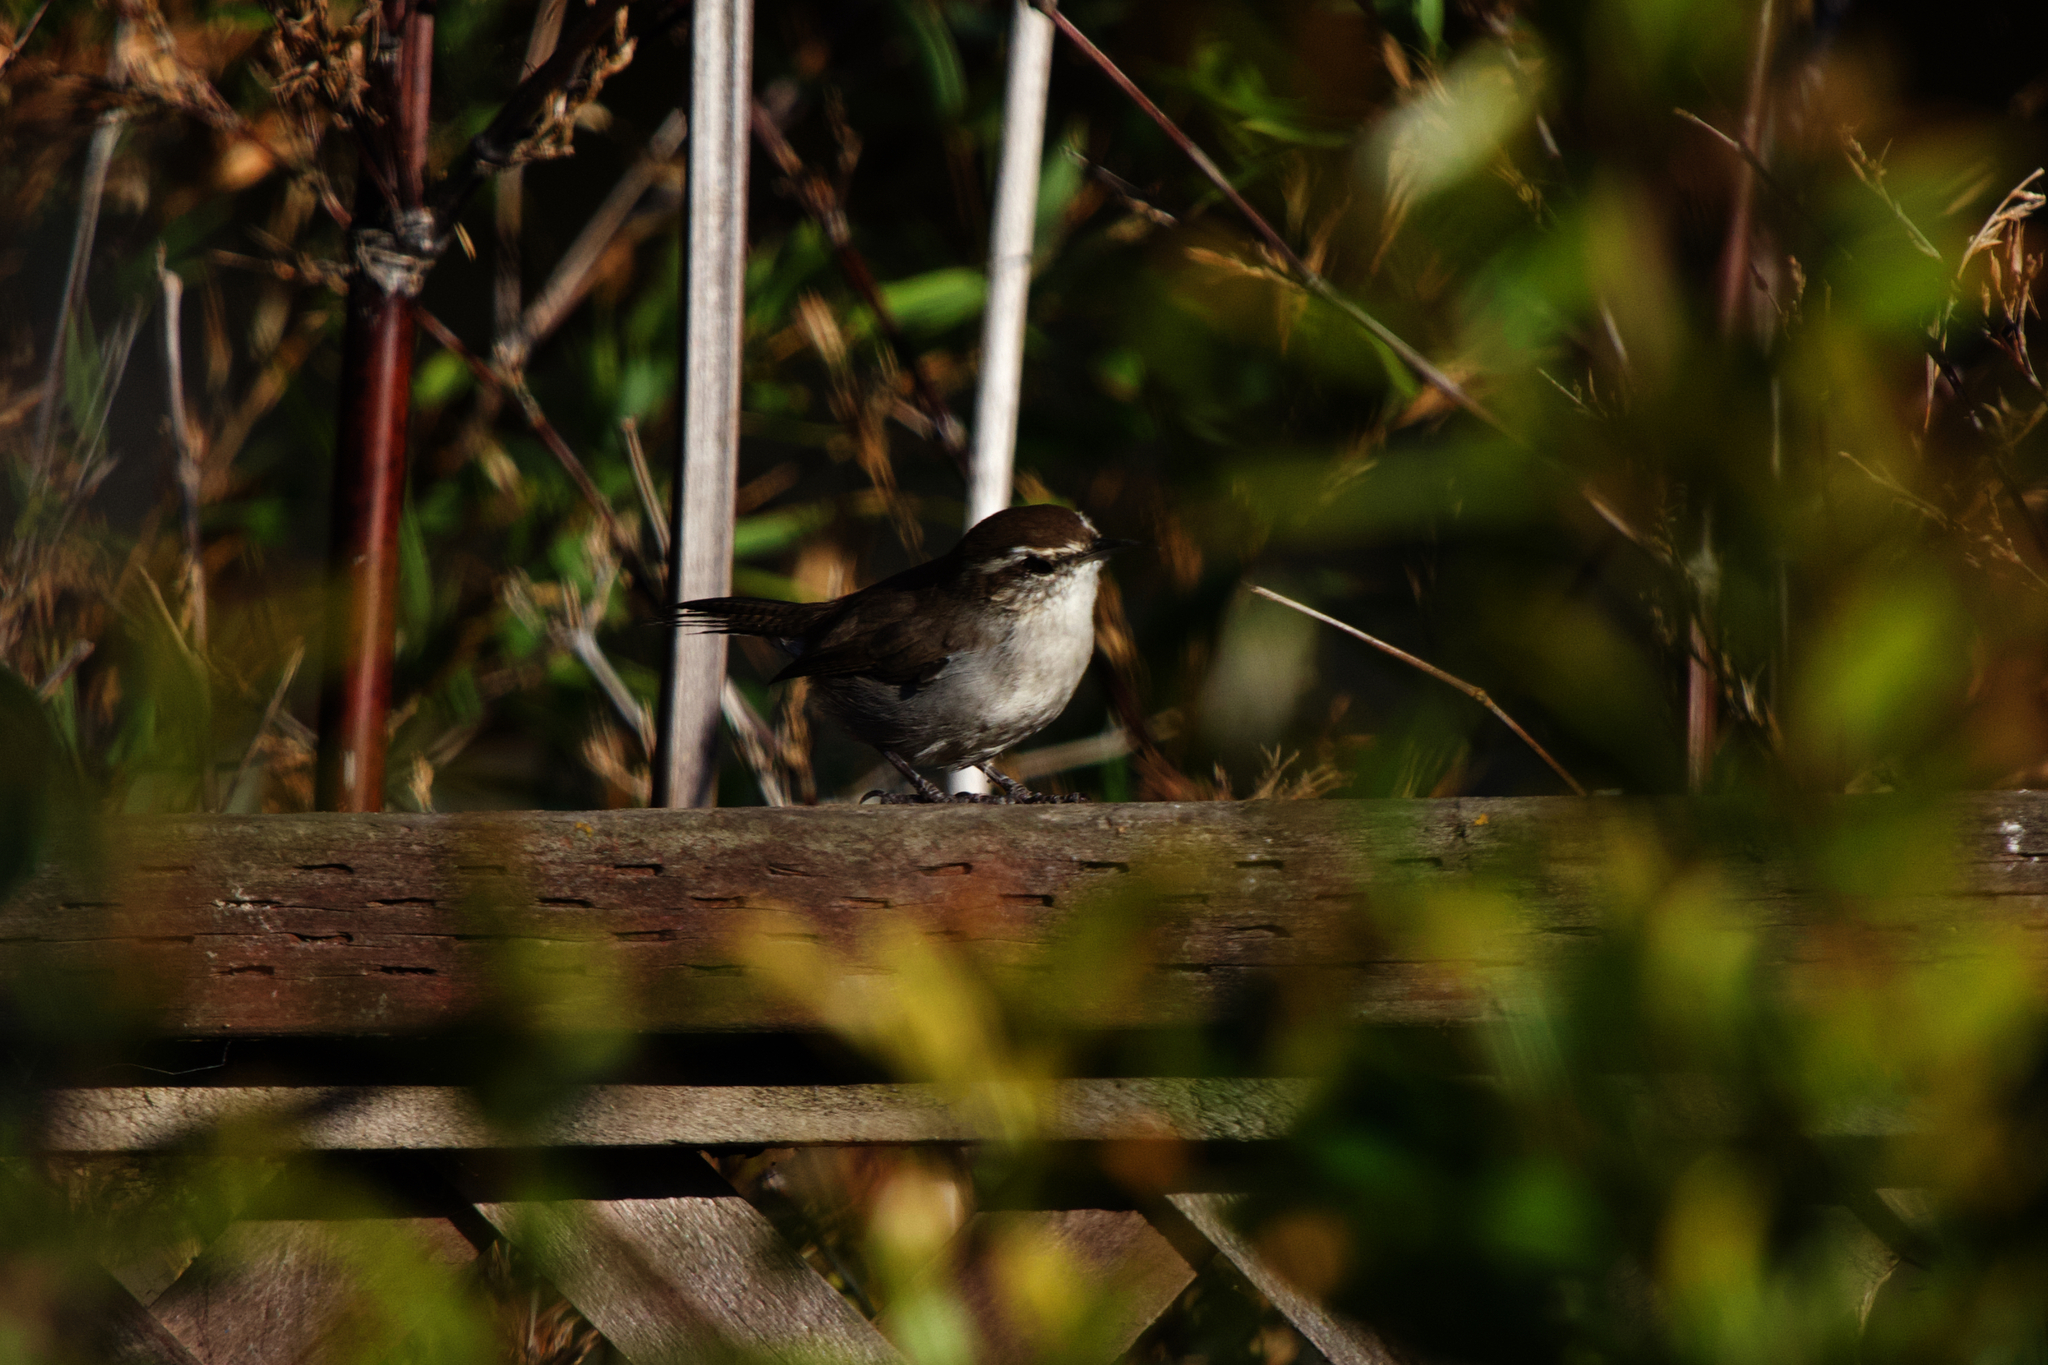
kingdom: Animalia
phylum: Chordata
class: Aves
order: Passeriformes
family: Troglodytidae
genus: Thryomanes
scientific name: Thryomanes bewickii
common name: Bewick's wren
